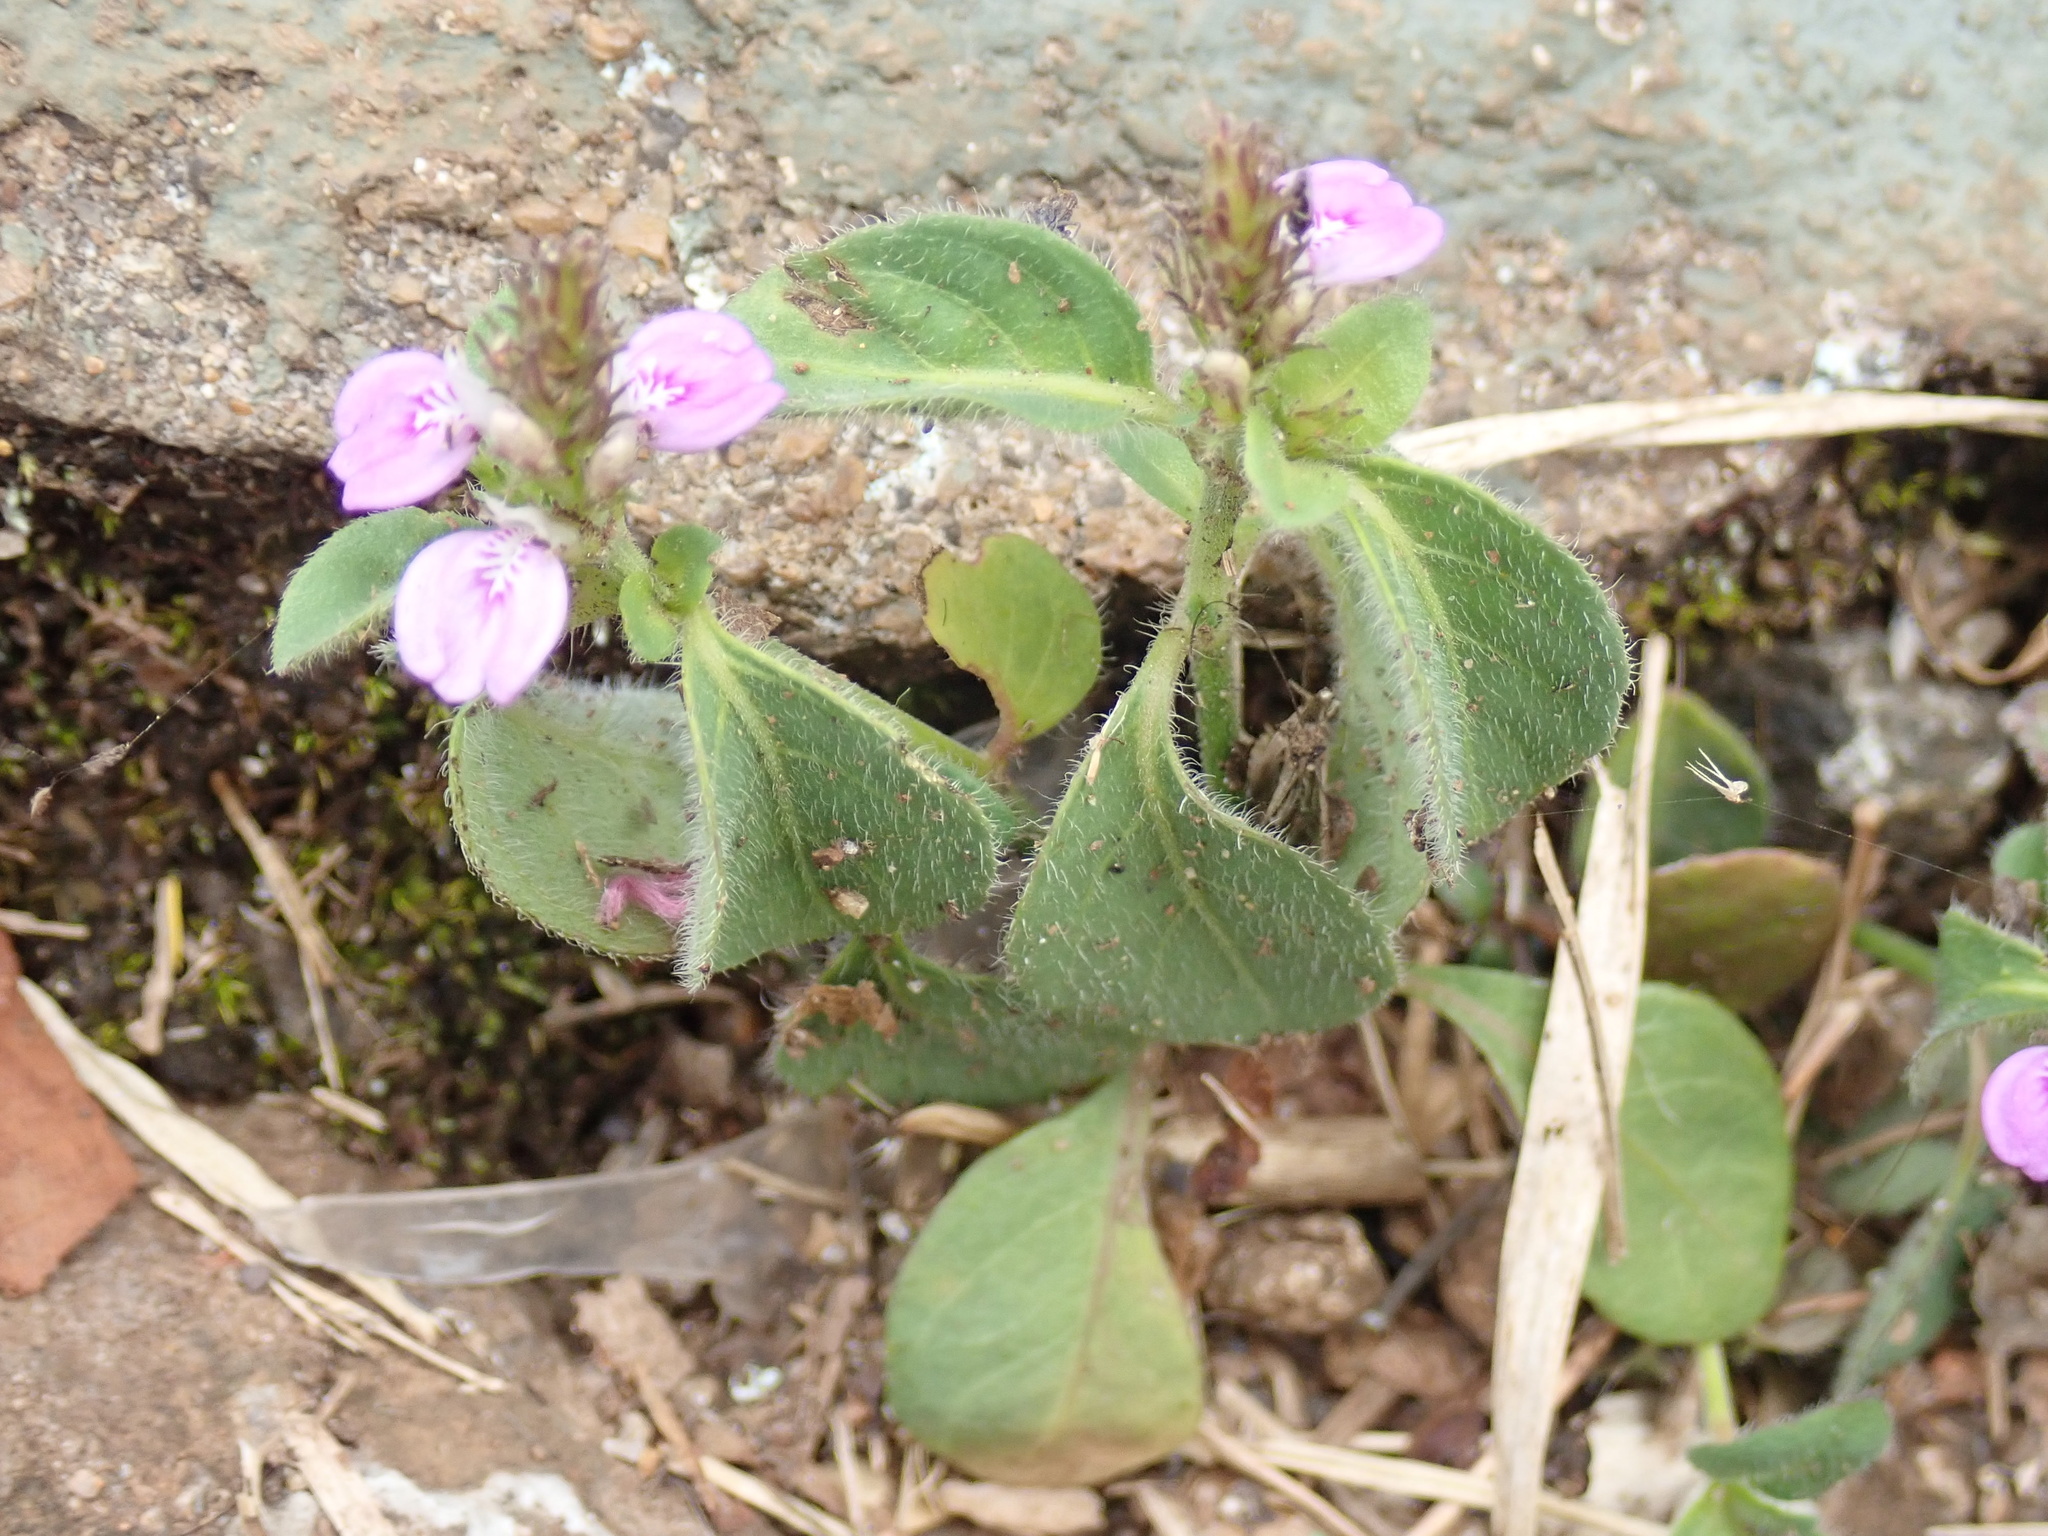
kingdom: Plantae
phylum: Tracheophyta
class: Magnoliopsida
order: Lamiales
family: Acanthaceae
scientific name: Acanthaceae
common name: Acanthaceae
